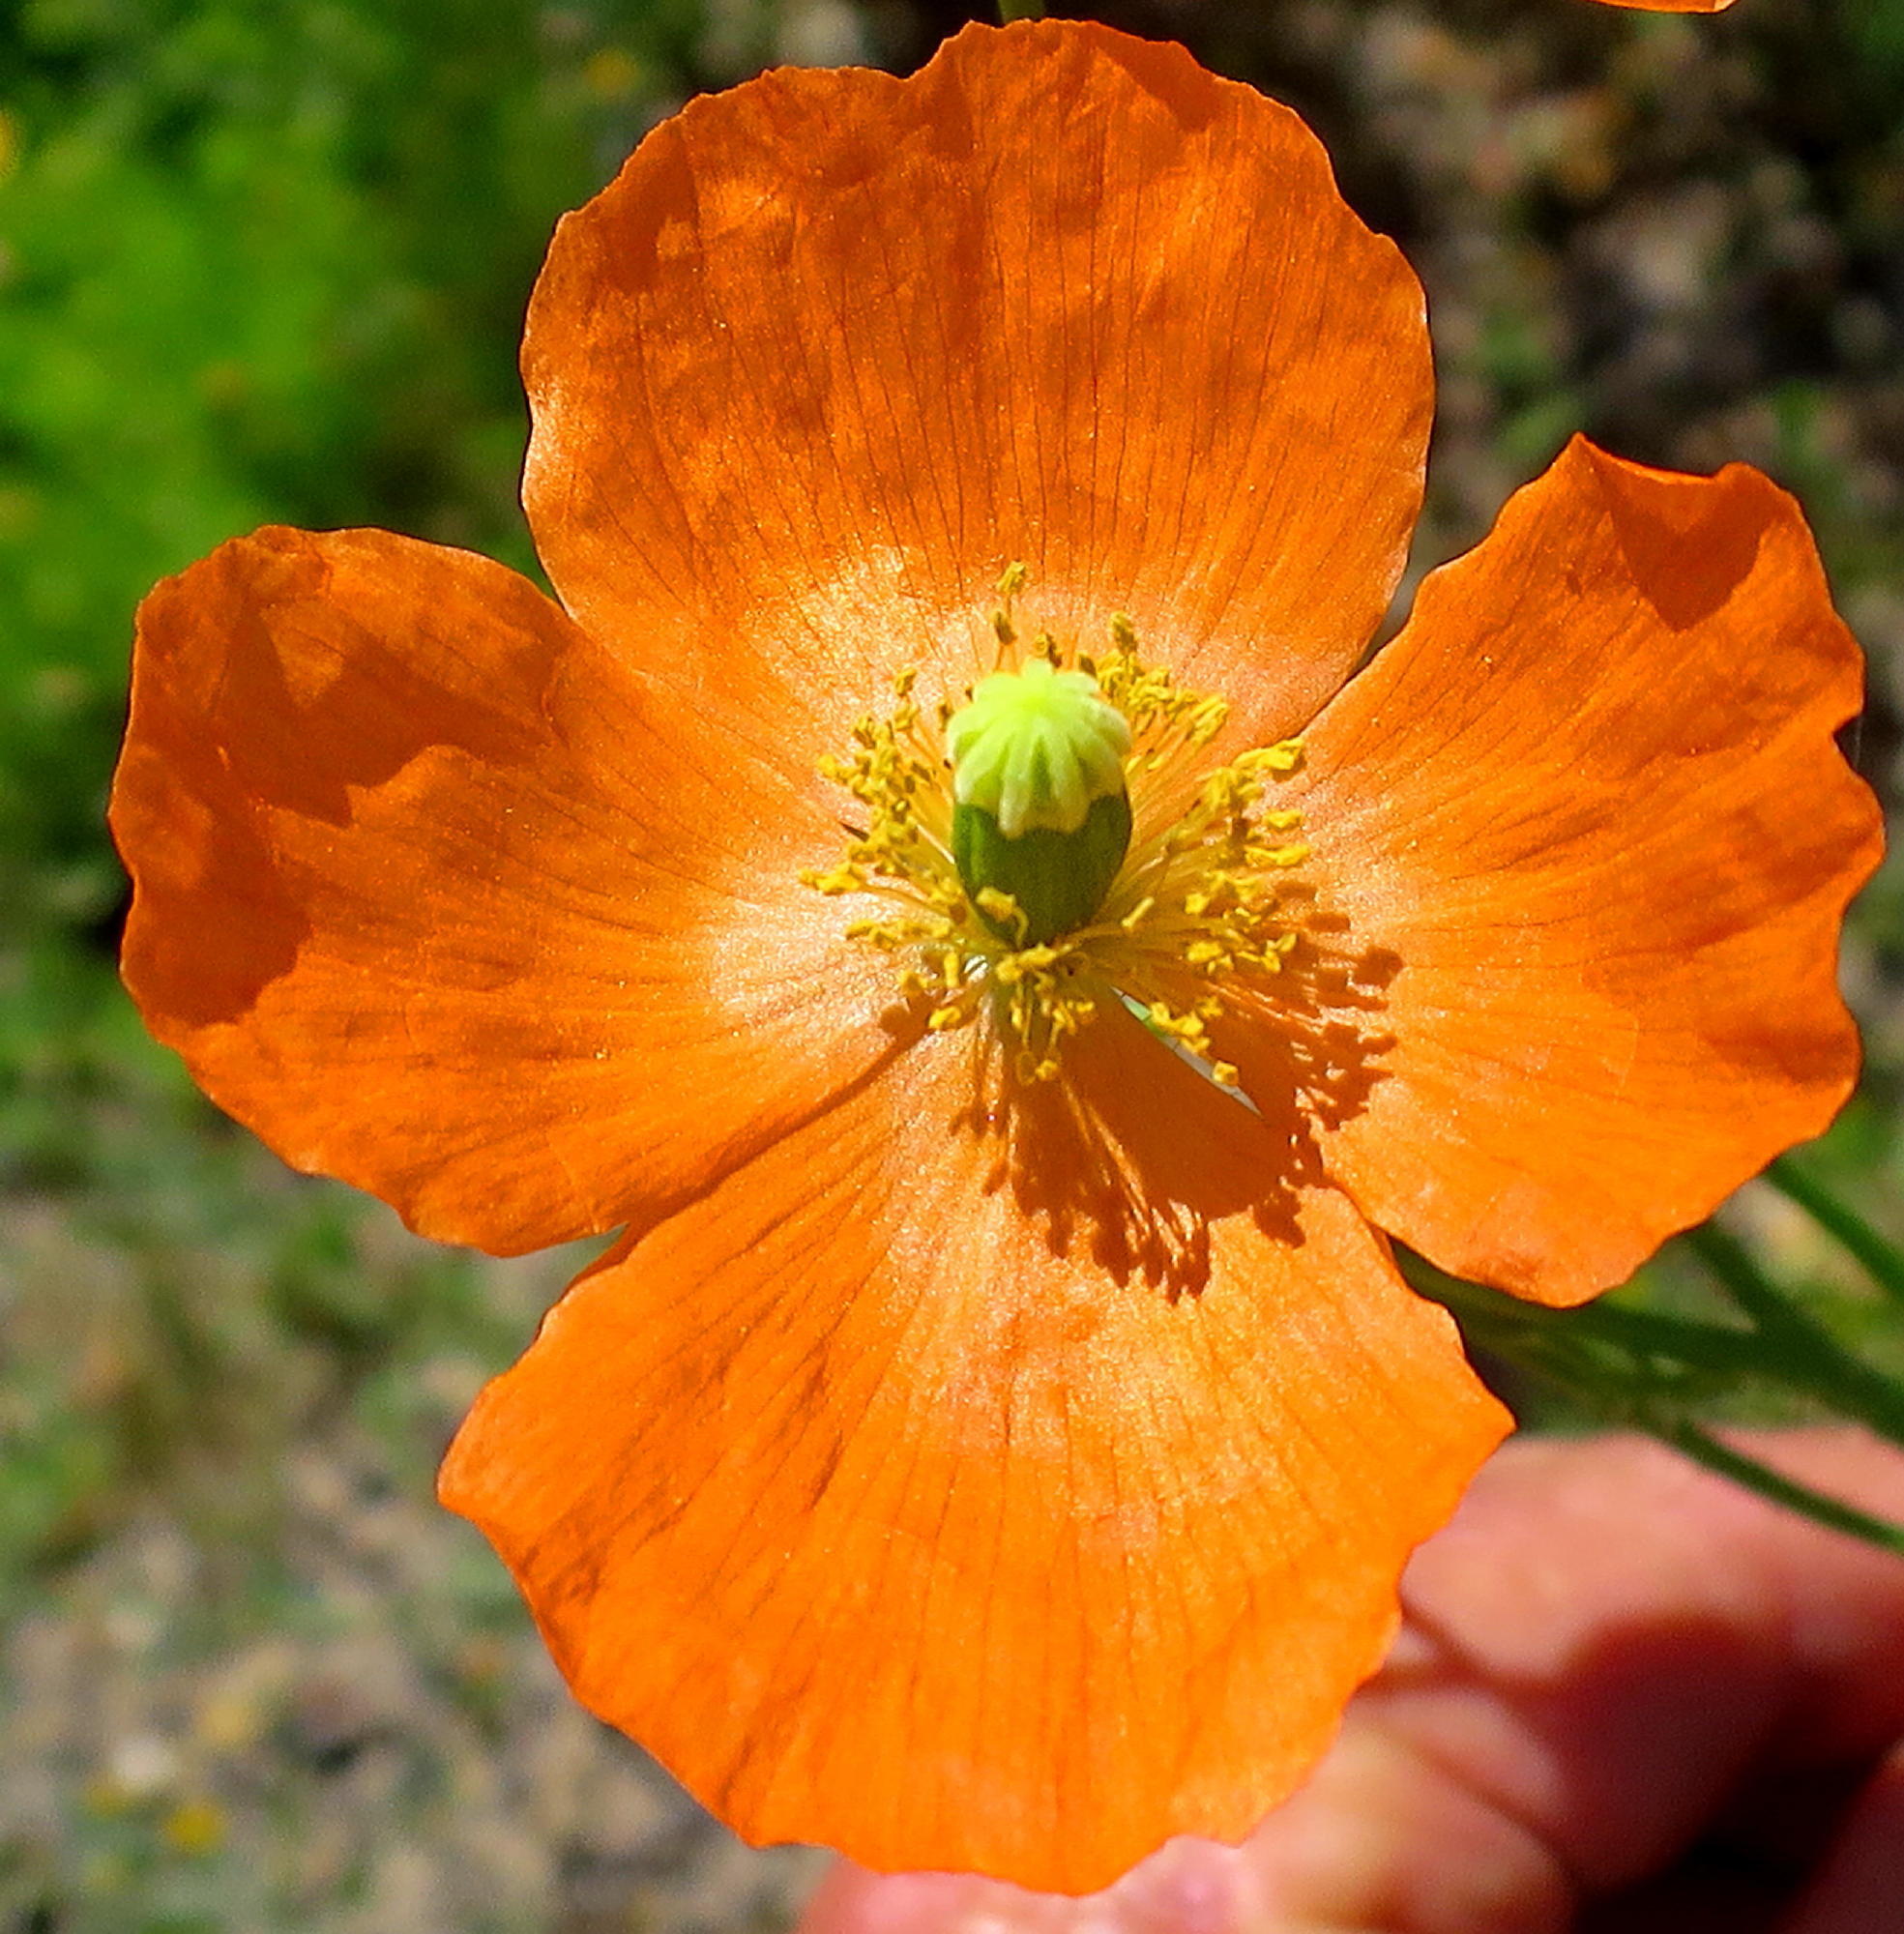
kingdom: Plantae
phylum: Tracheophyta
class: Magnoliopsida
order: Ranunculales
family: Papaveraceae
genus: Papaver
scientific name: Papaver aculeatum
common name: Bristle poppy
